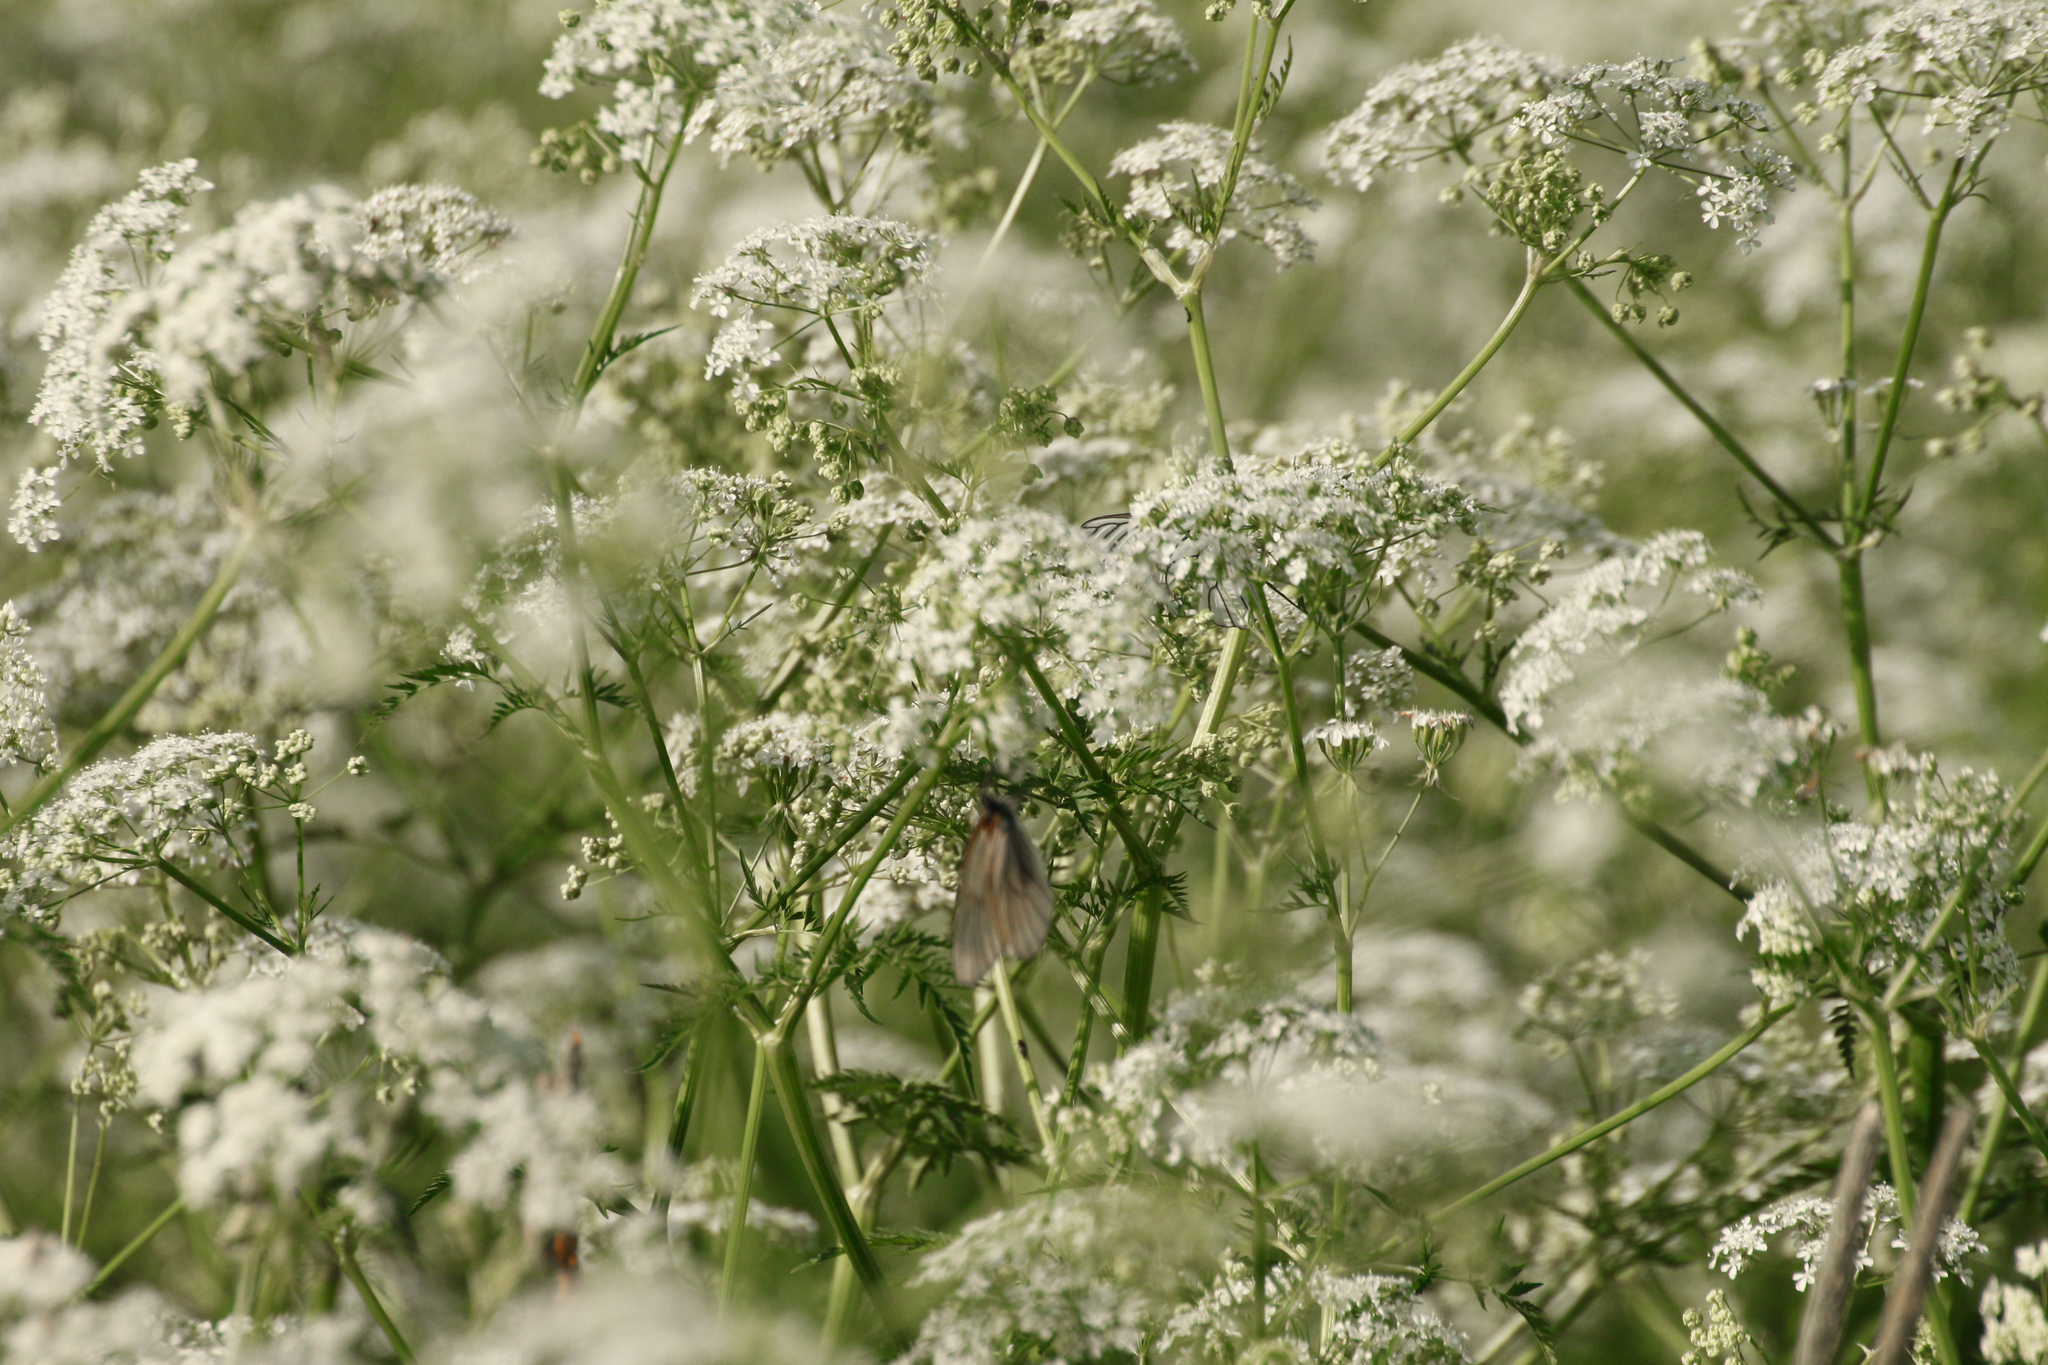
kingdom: Plantae
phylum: Tracheophyta
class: Magnoliopsida
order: Apiales
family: Apiaceae
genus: Anthriscus
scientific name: Anthriscus sylvestris
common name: Cow parsley
